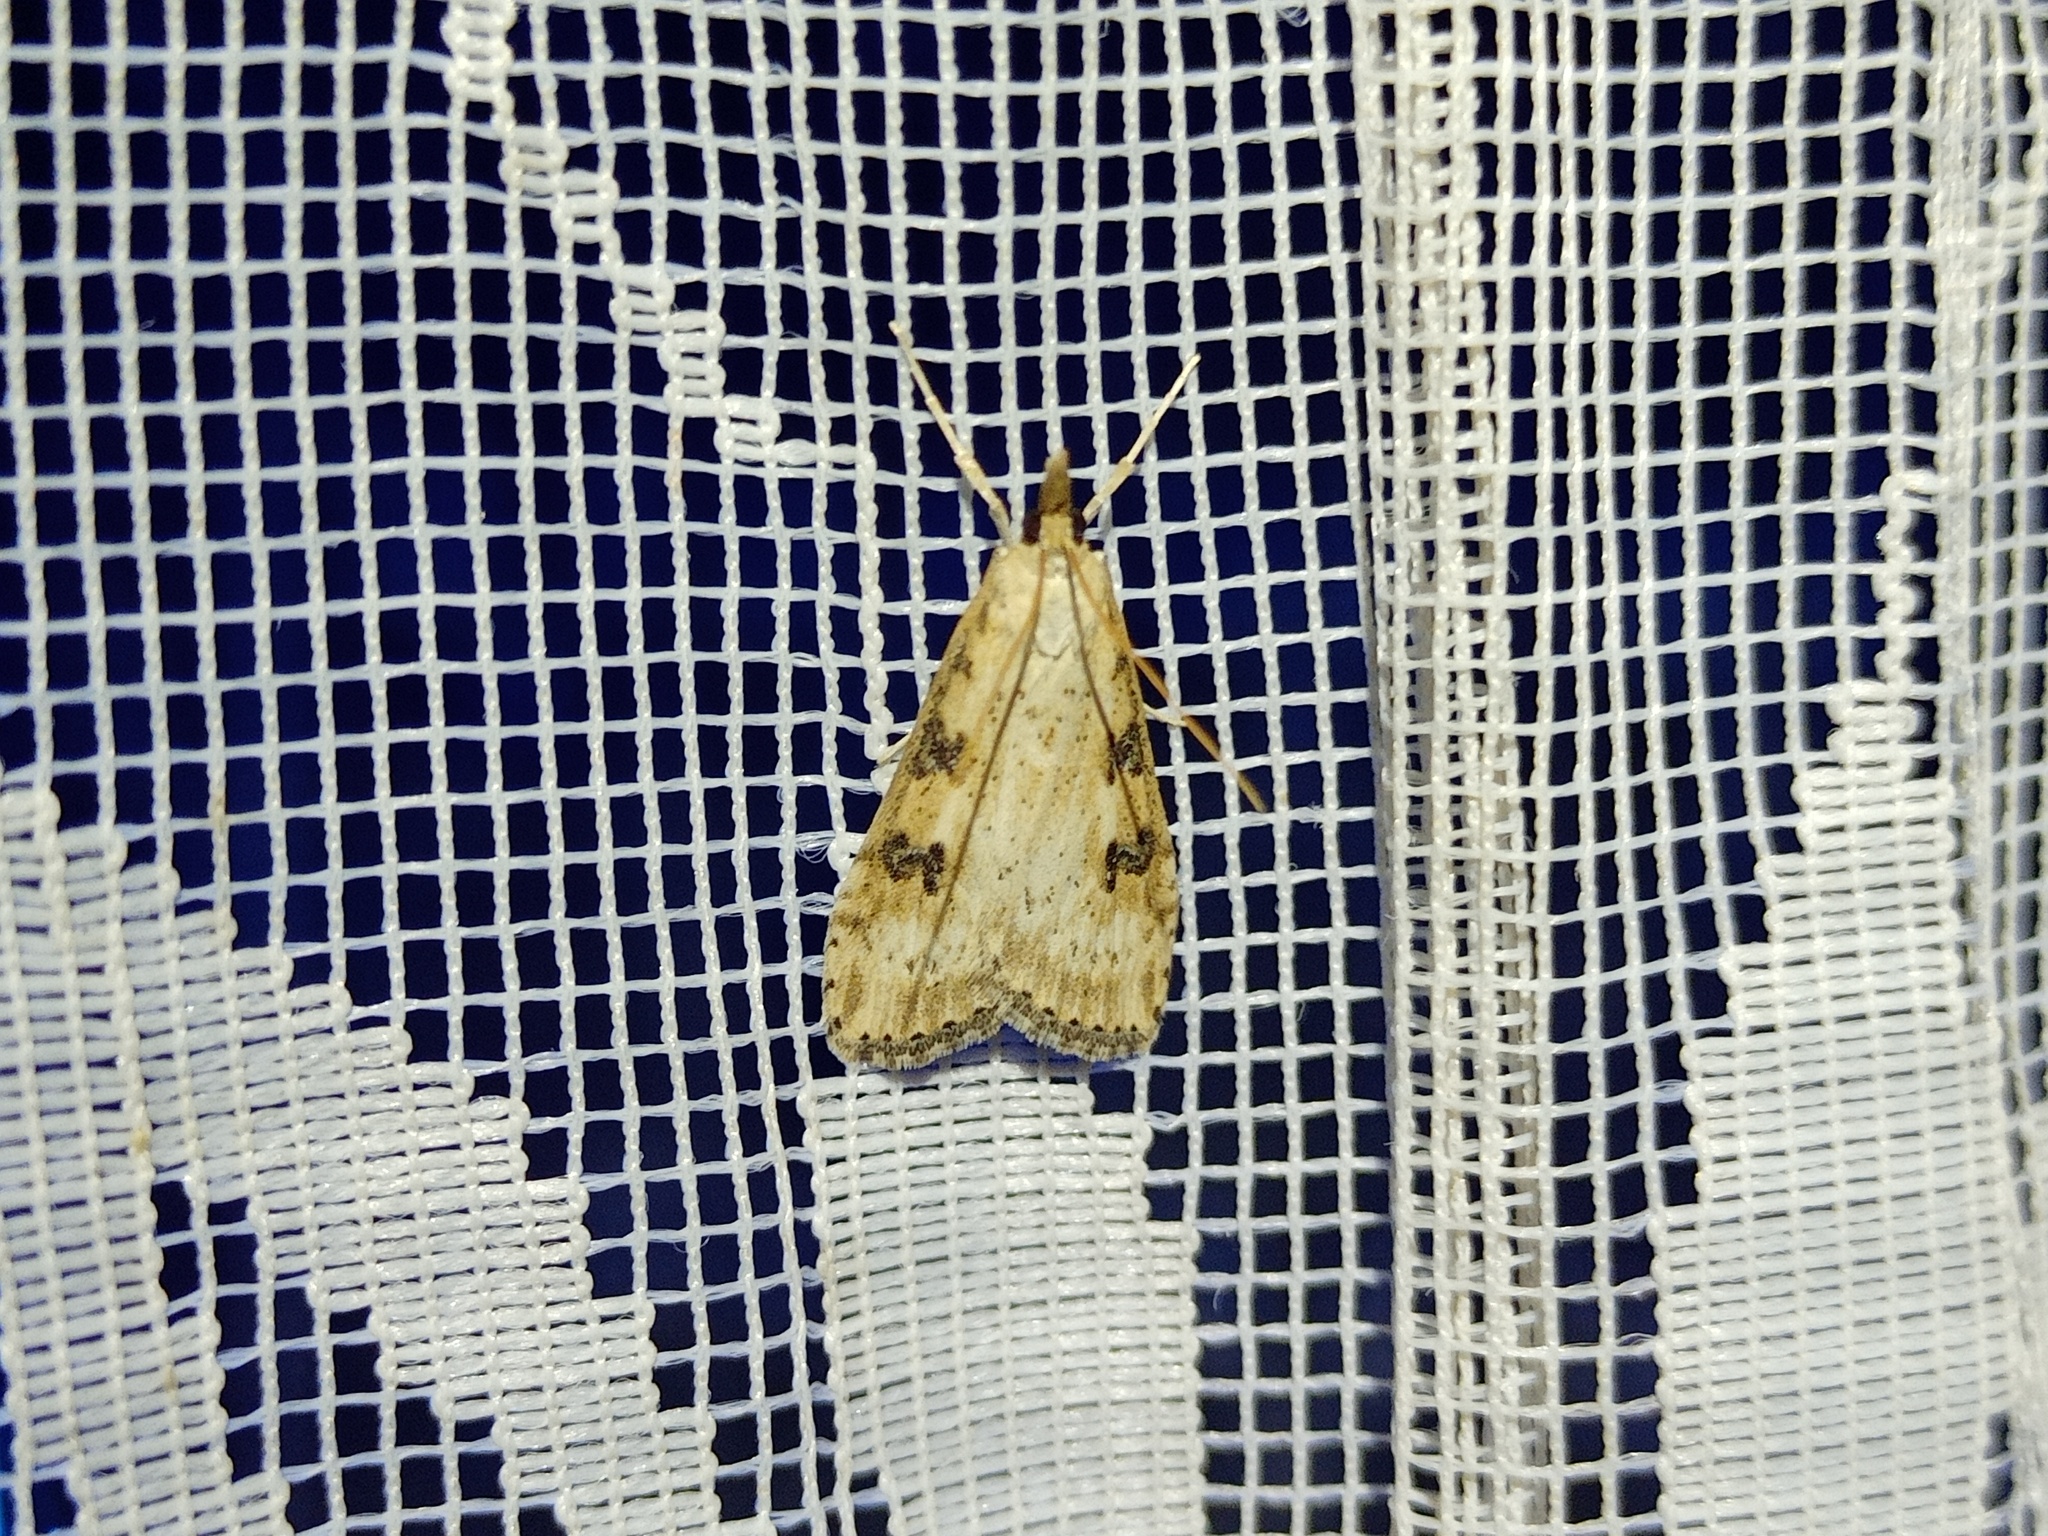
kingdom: Animalia
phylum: Arthropoda
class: Insecta
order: Lepidoptera
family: Crambidae
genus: Udea
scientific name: Udea costalis
